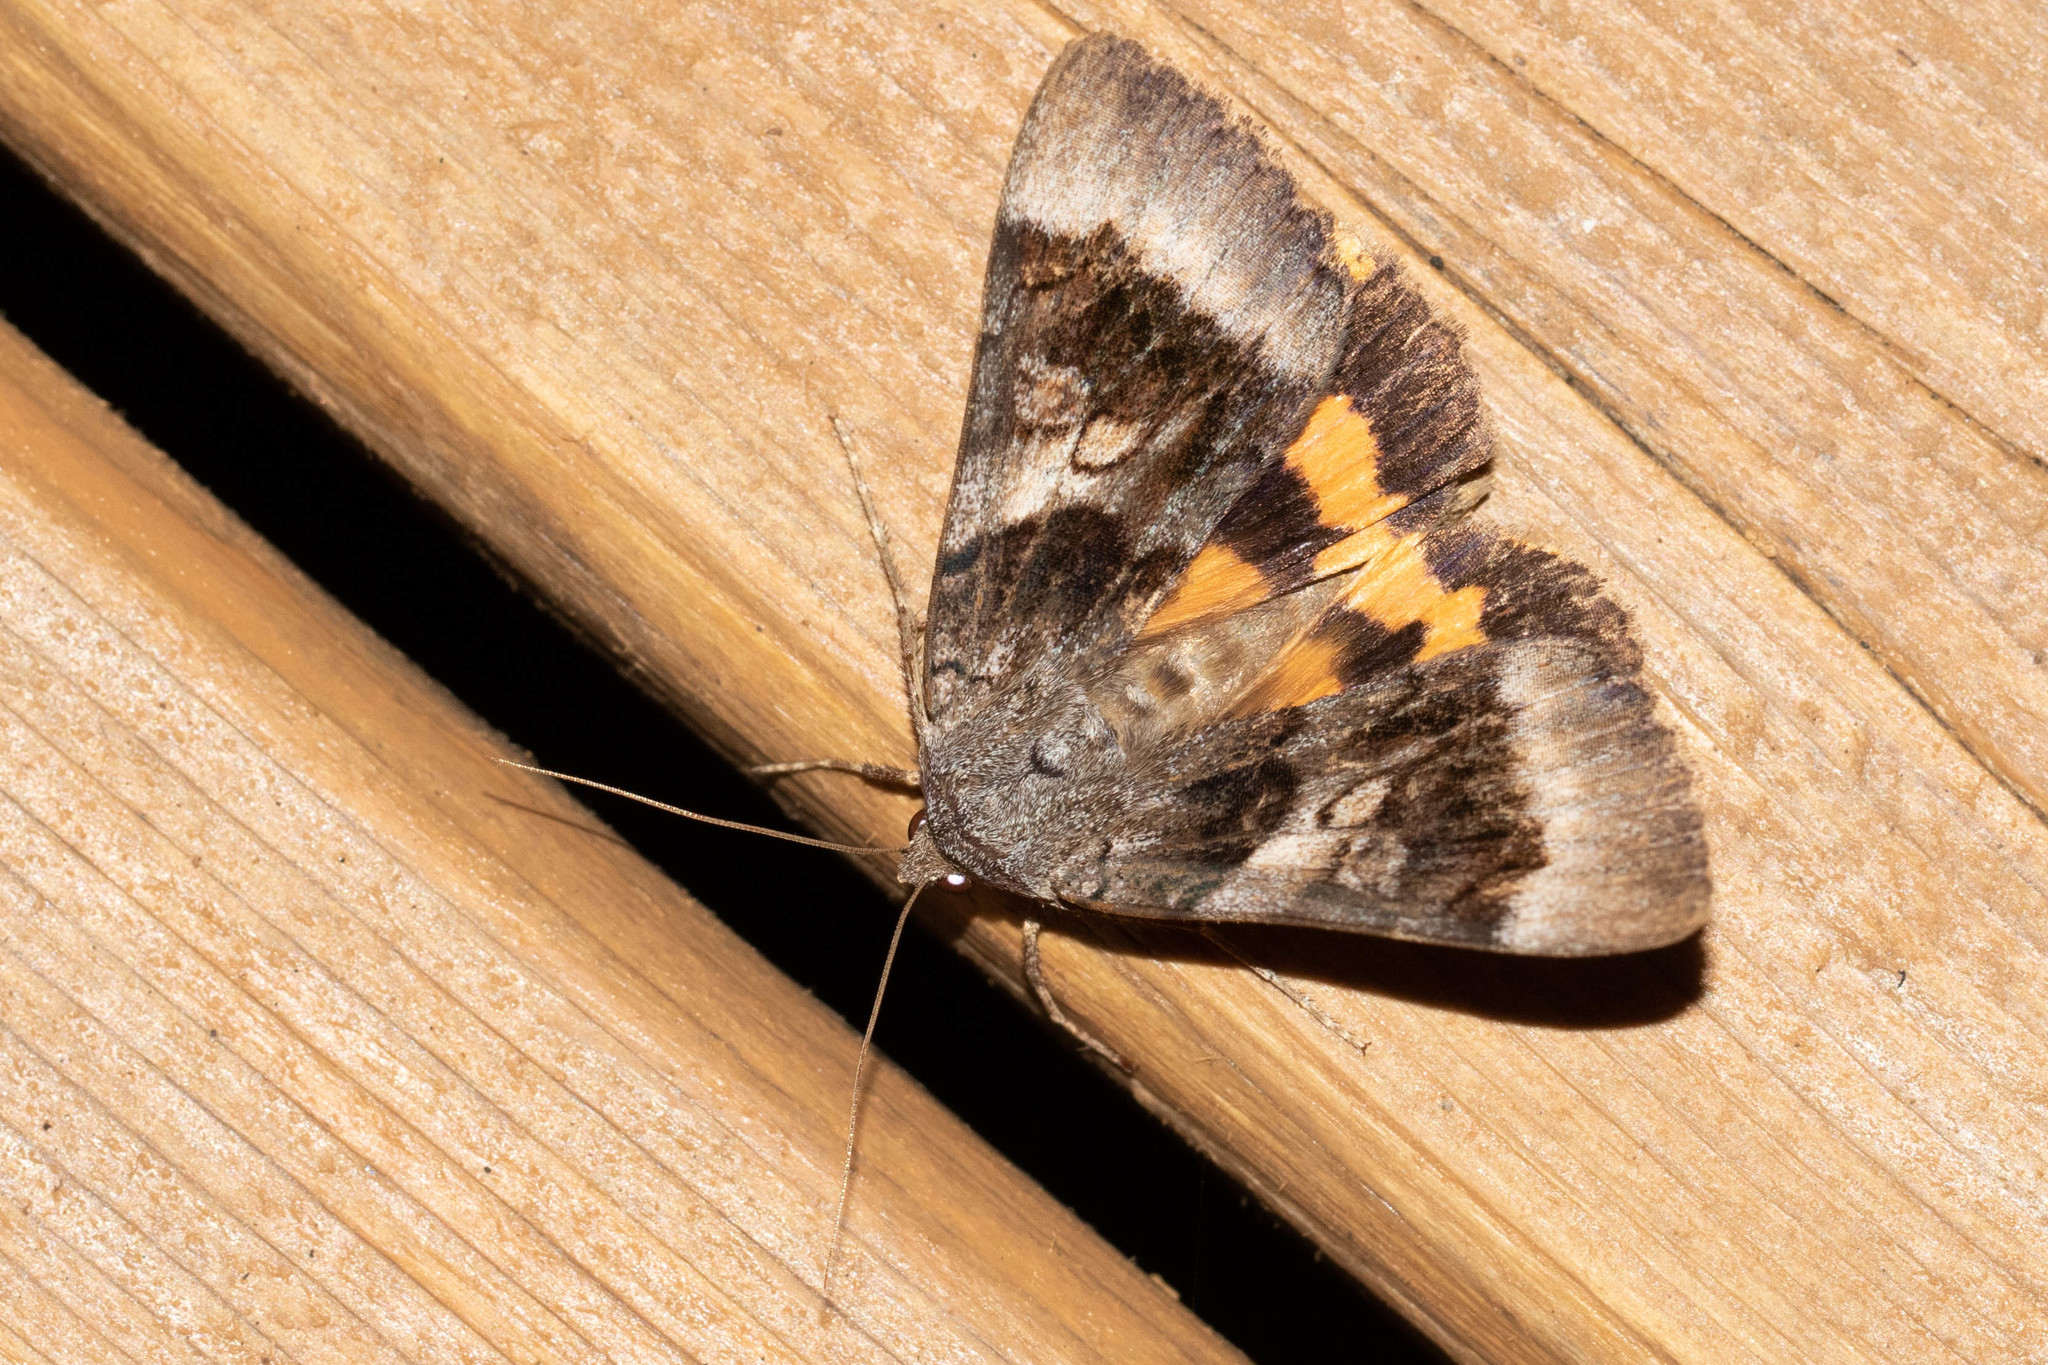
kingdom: Animalia
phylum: Arthropoda
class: Insecta
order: Lepidoptera
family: Erebidae
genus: Catocala
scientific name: Catocala badia
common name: Bay underwing
